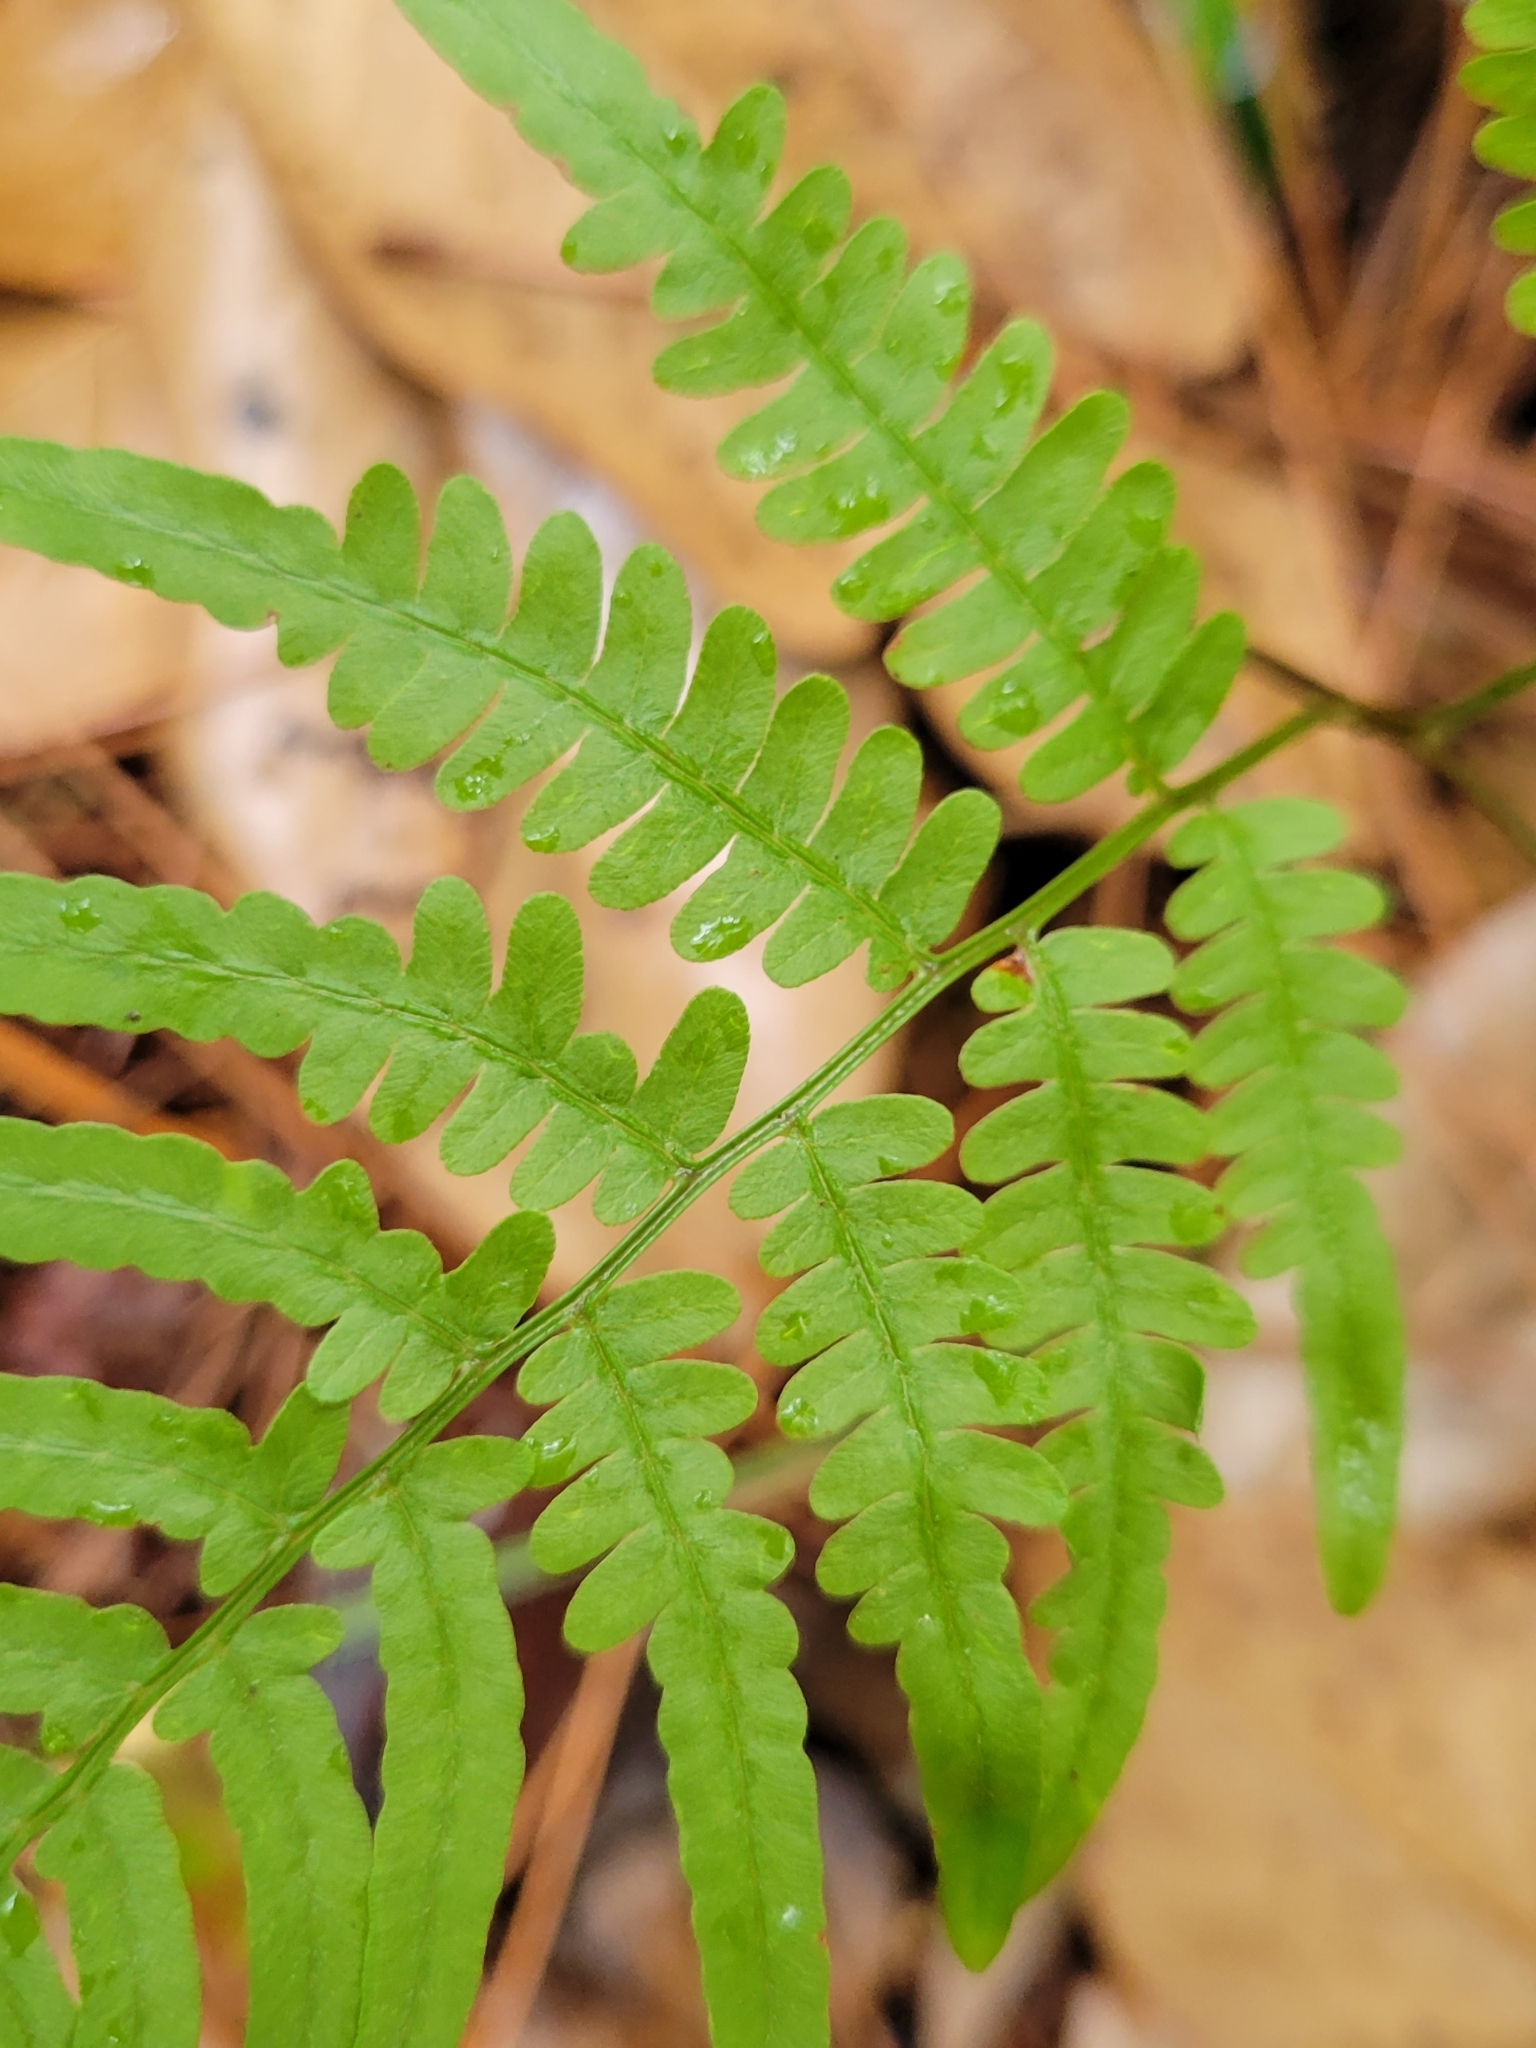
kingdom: Plantae
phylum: Tracheophyta
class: Polypodiopsida
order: Polypodiales
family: Dennstaedtiaceae
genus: Pteridium
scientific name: Pteridium
